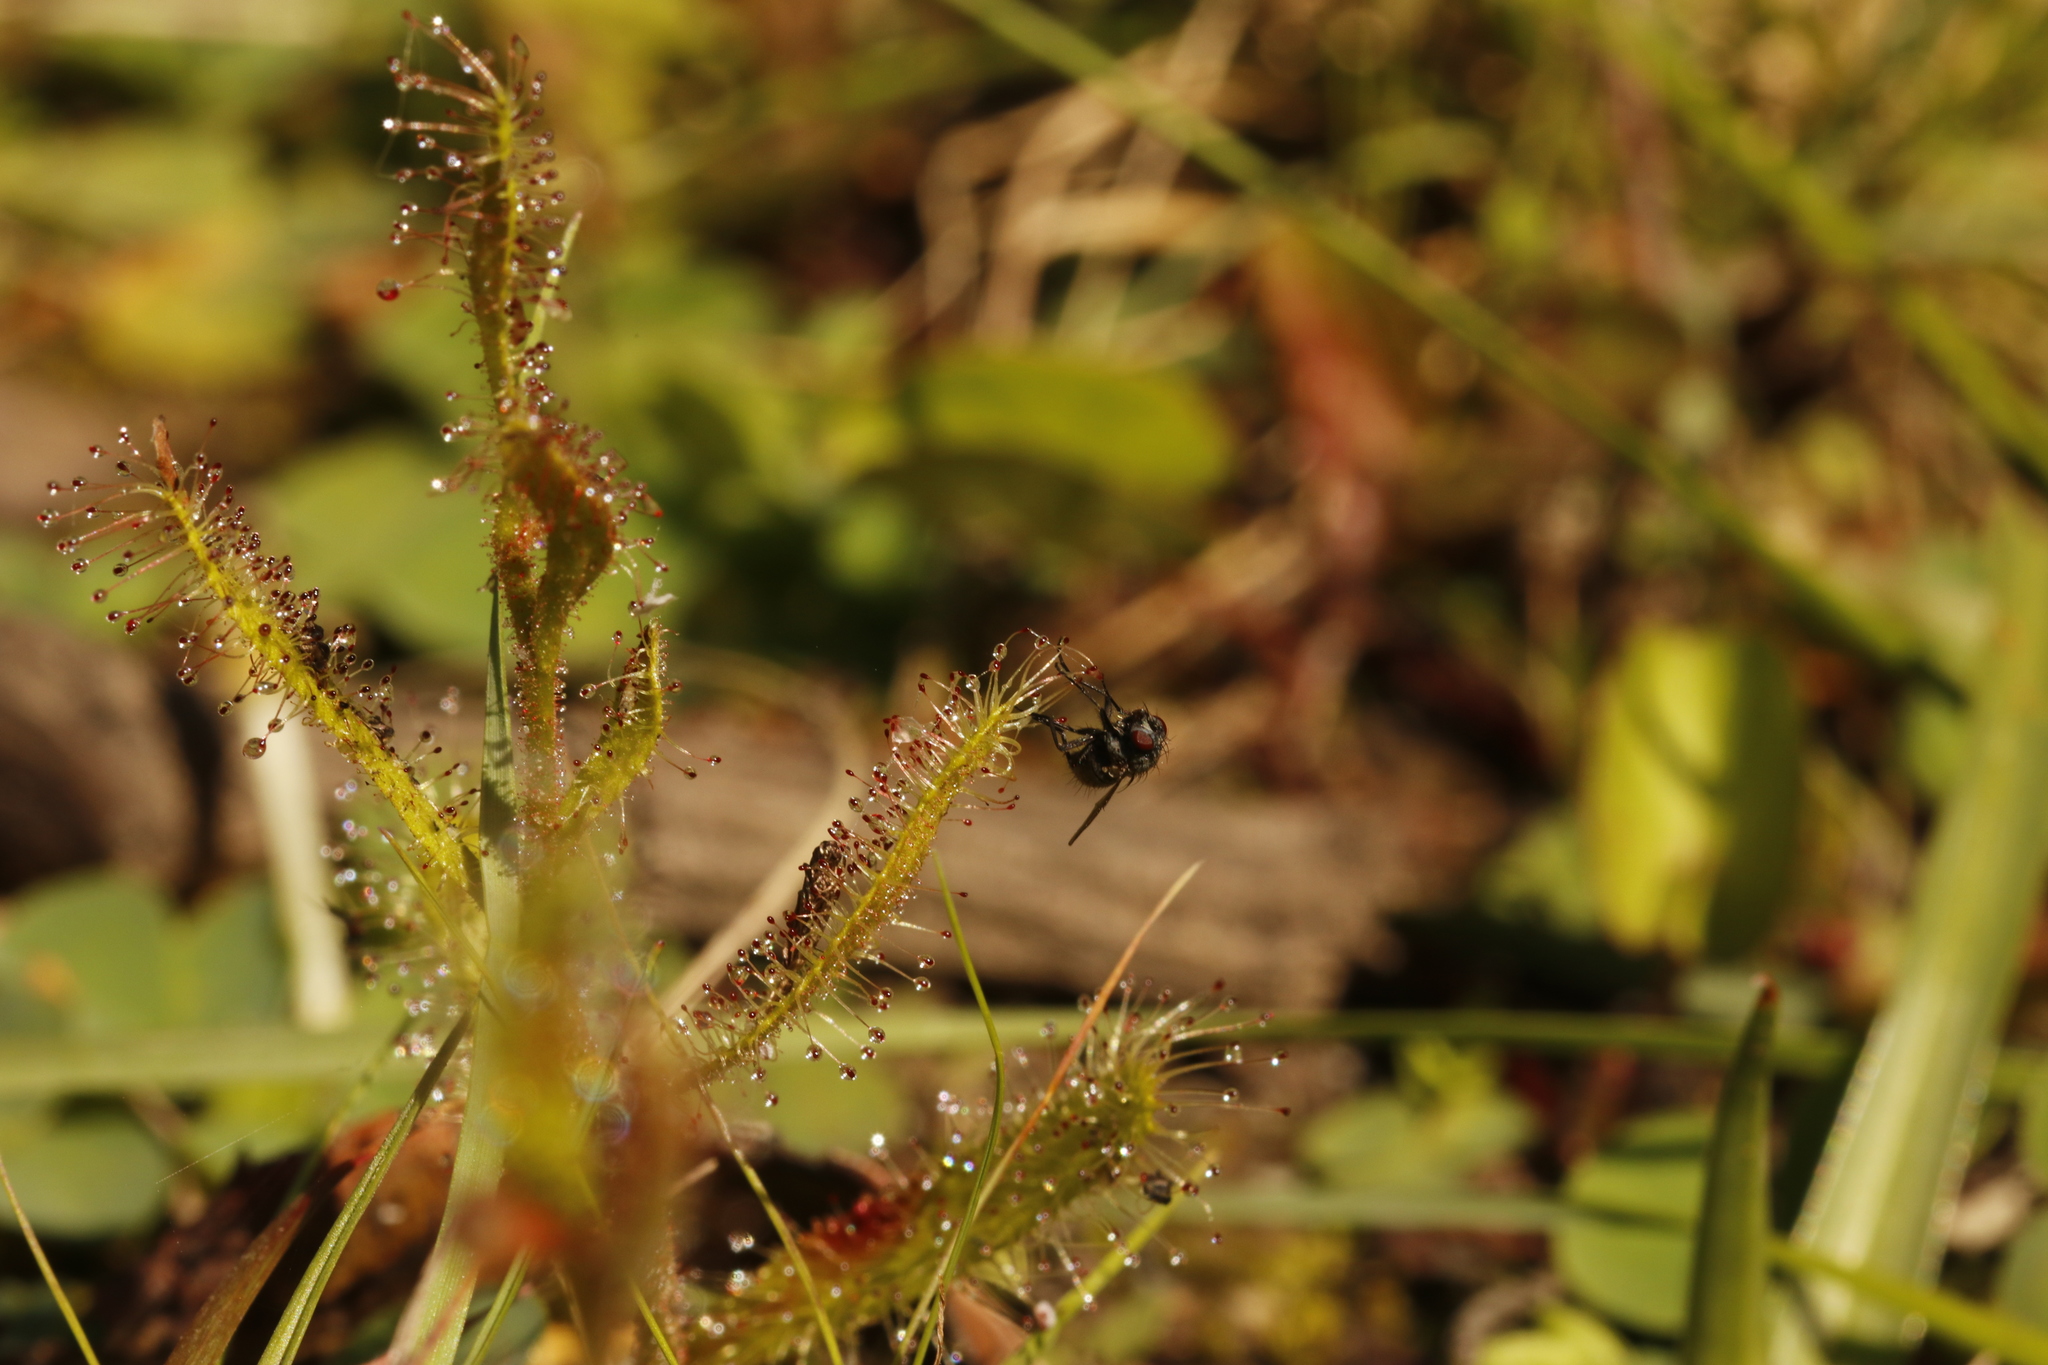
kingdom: Plantae
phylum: Tracheophyta
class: Magnoliopsida
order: Caryophyllales
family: Droseraceae
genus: Drosera
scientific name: Drosera cistiflora
